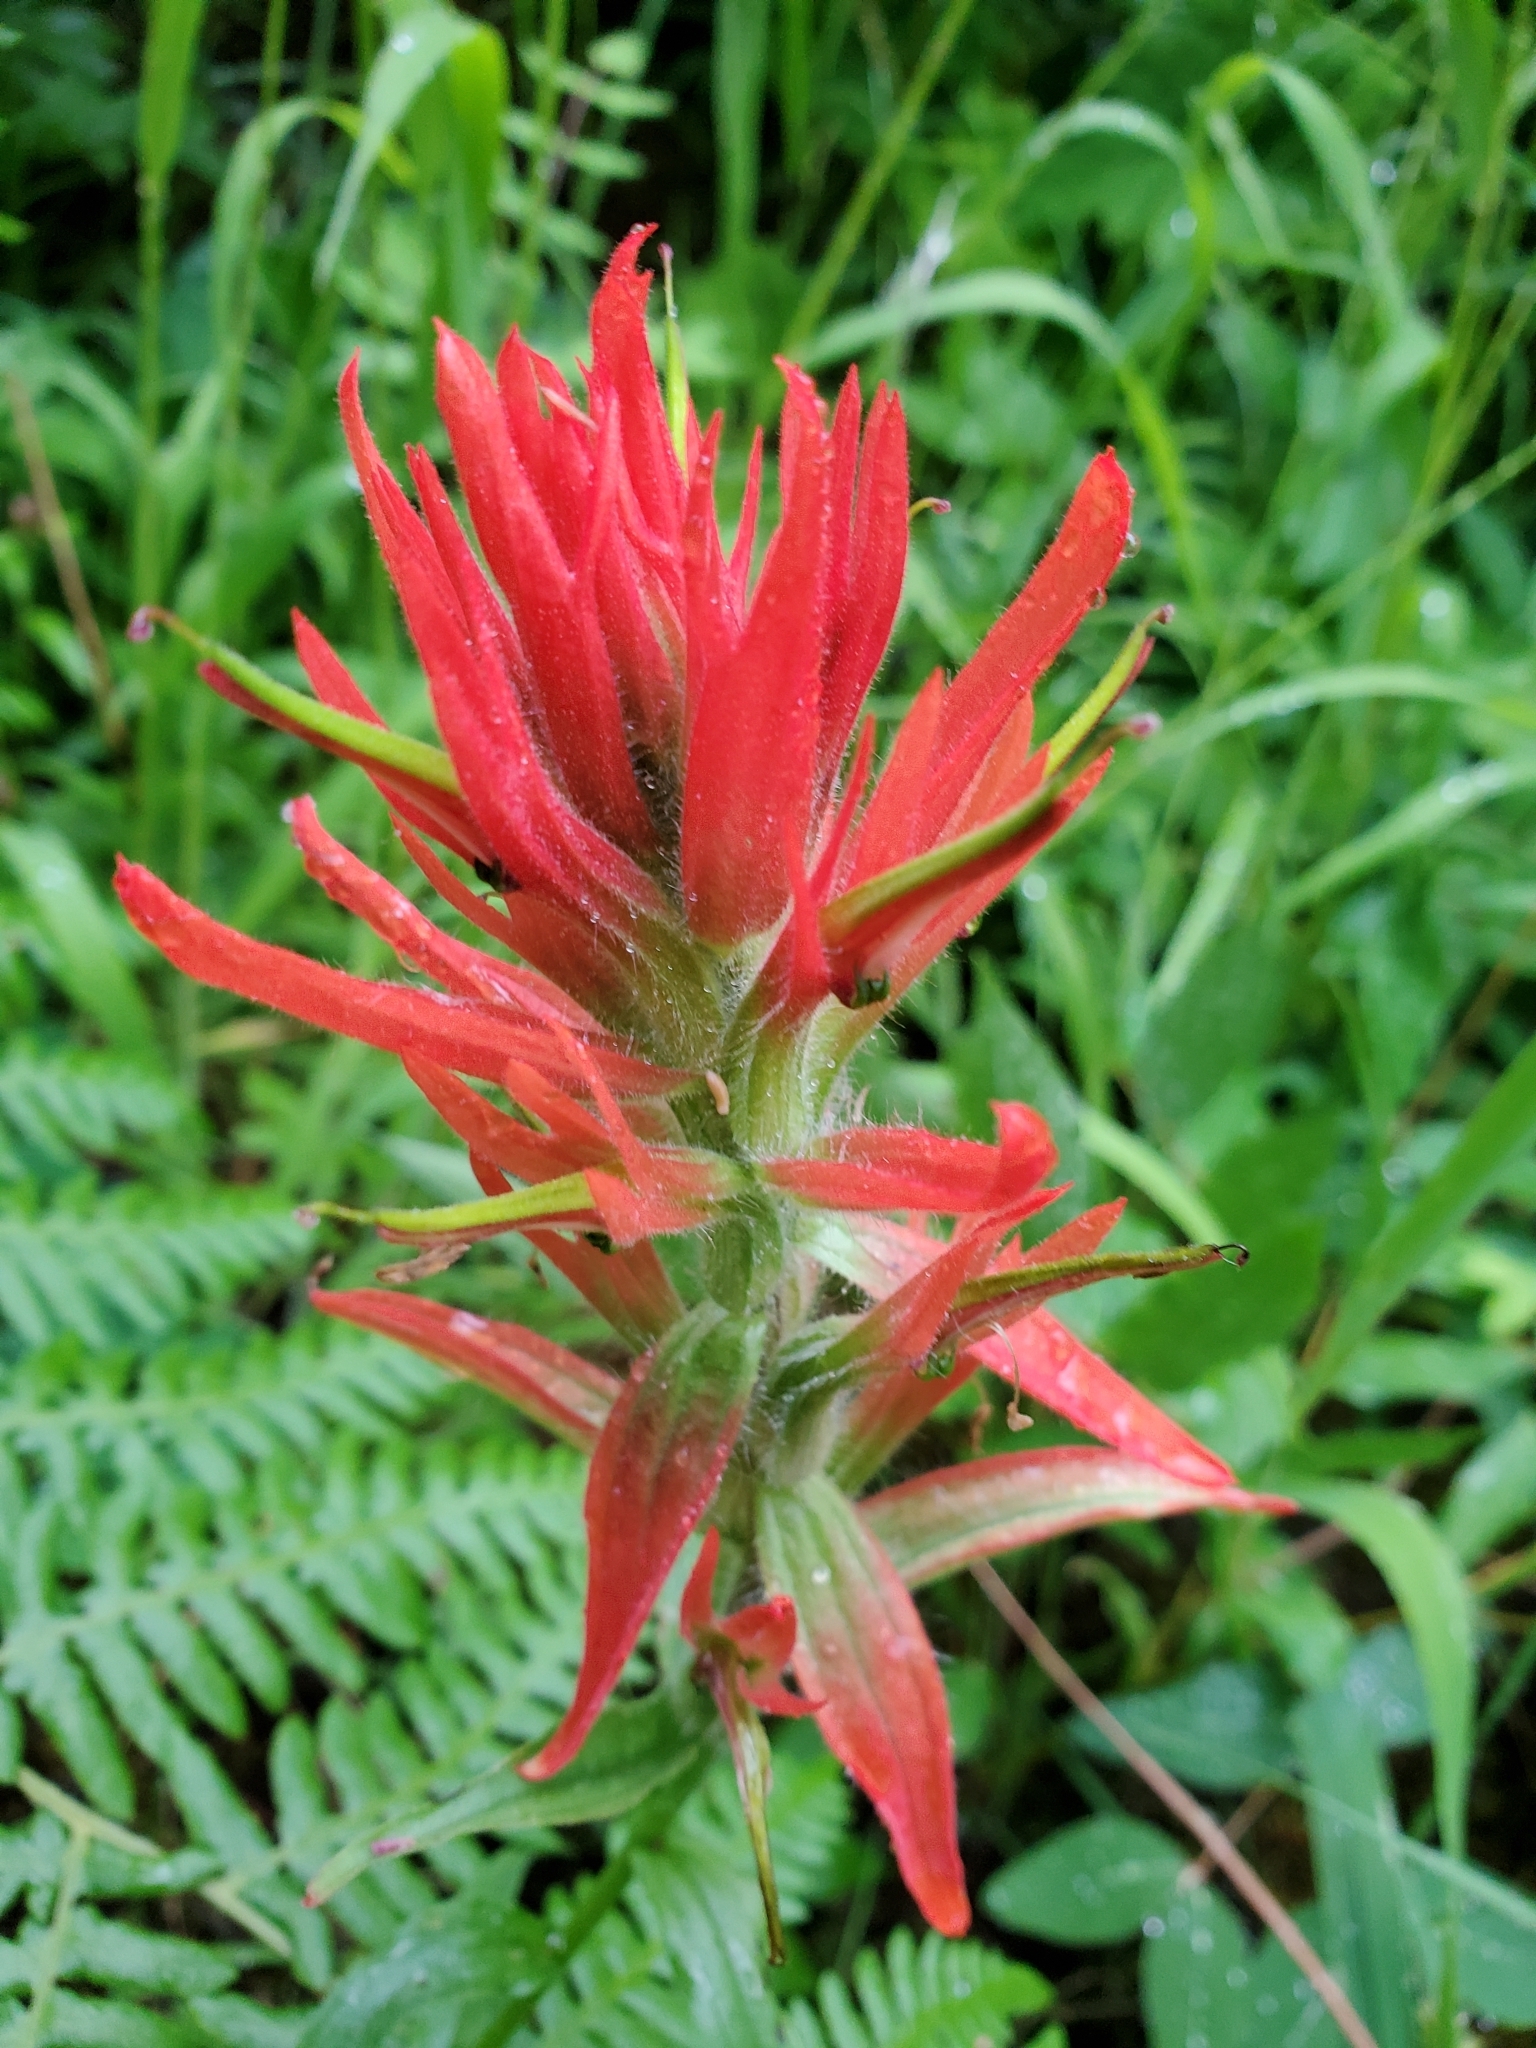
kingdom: Plantae
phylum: Tracheophyta
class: Magnoliopsida
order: Lamiales
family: Orobanchaceae
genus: Castilleja
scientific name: Castilleja miniata
